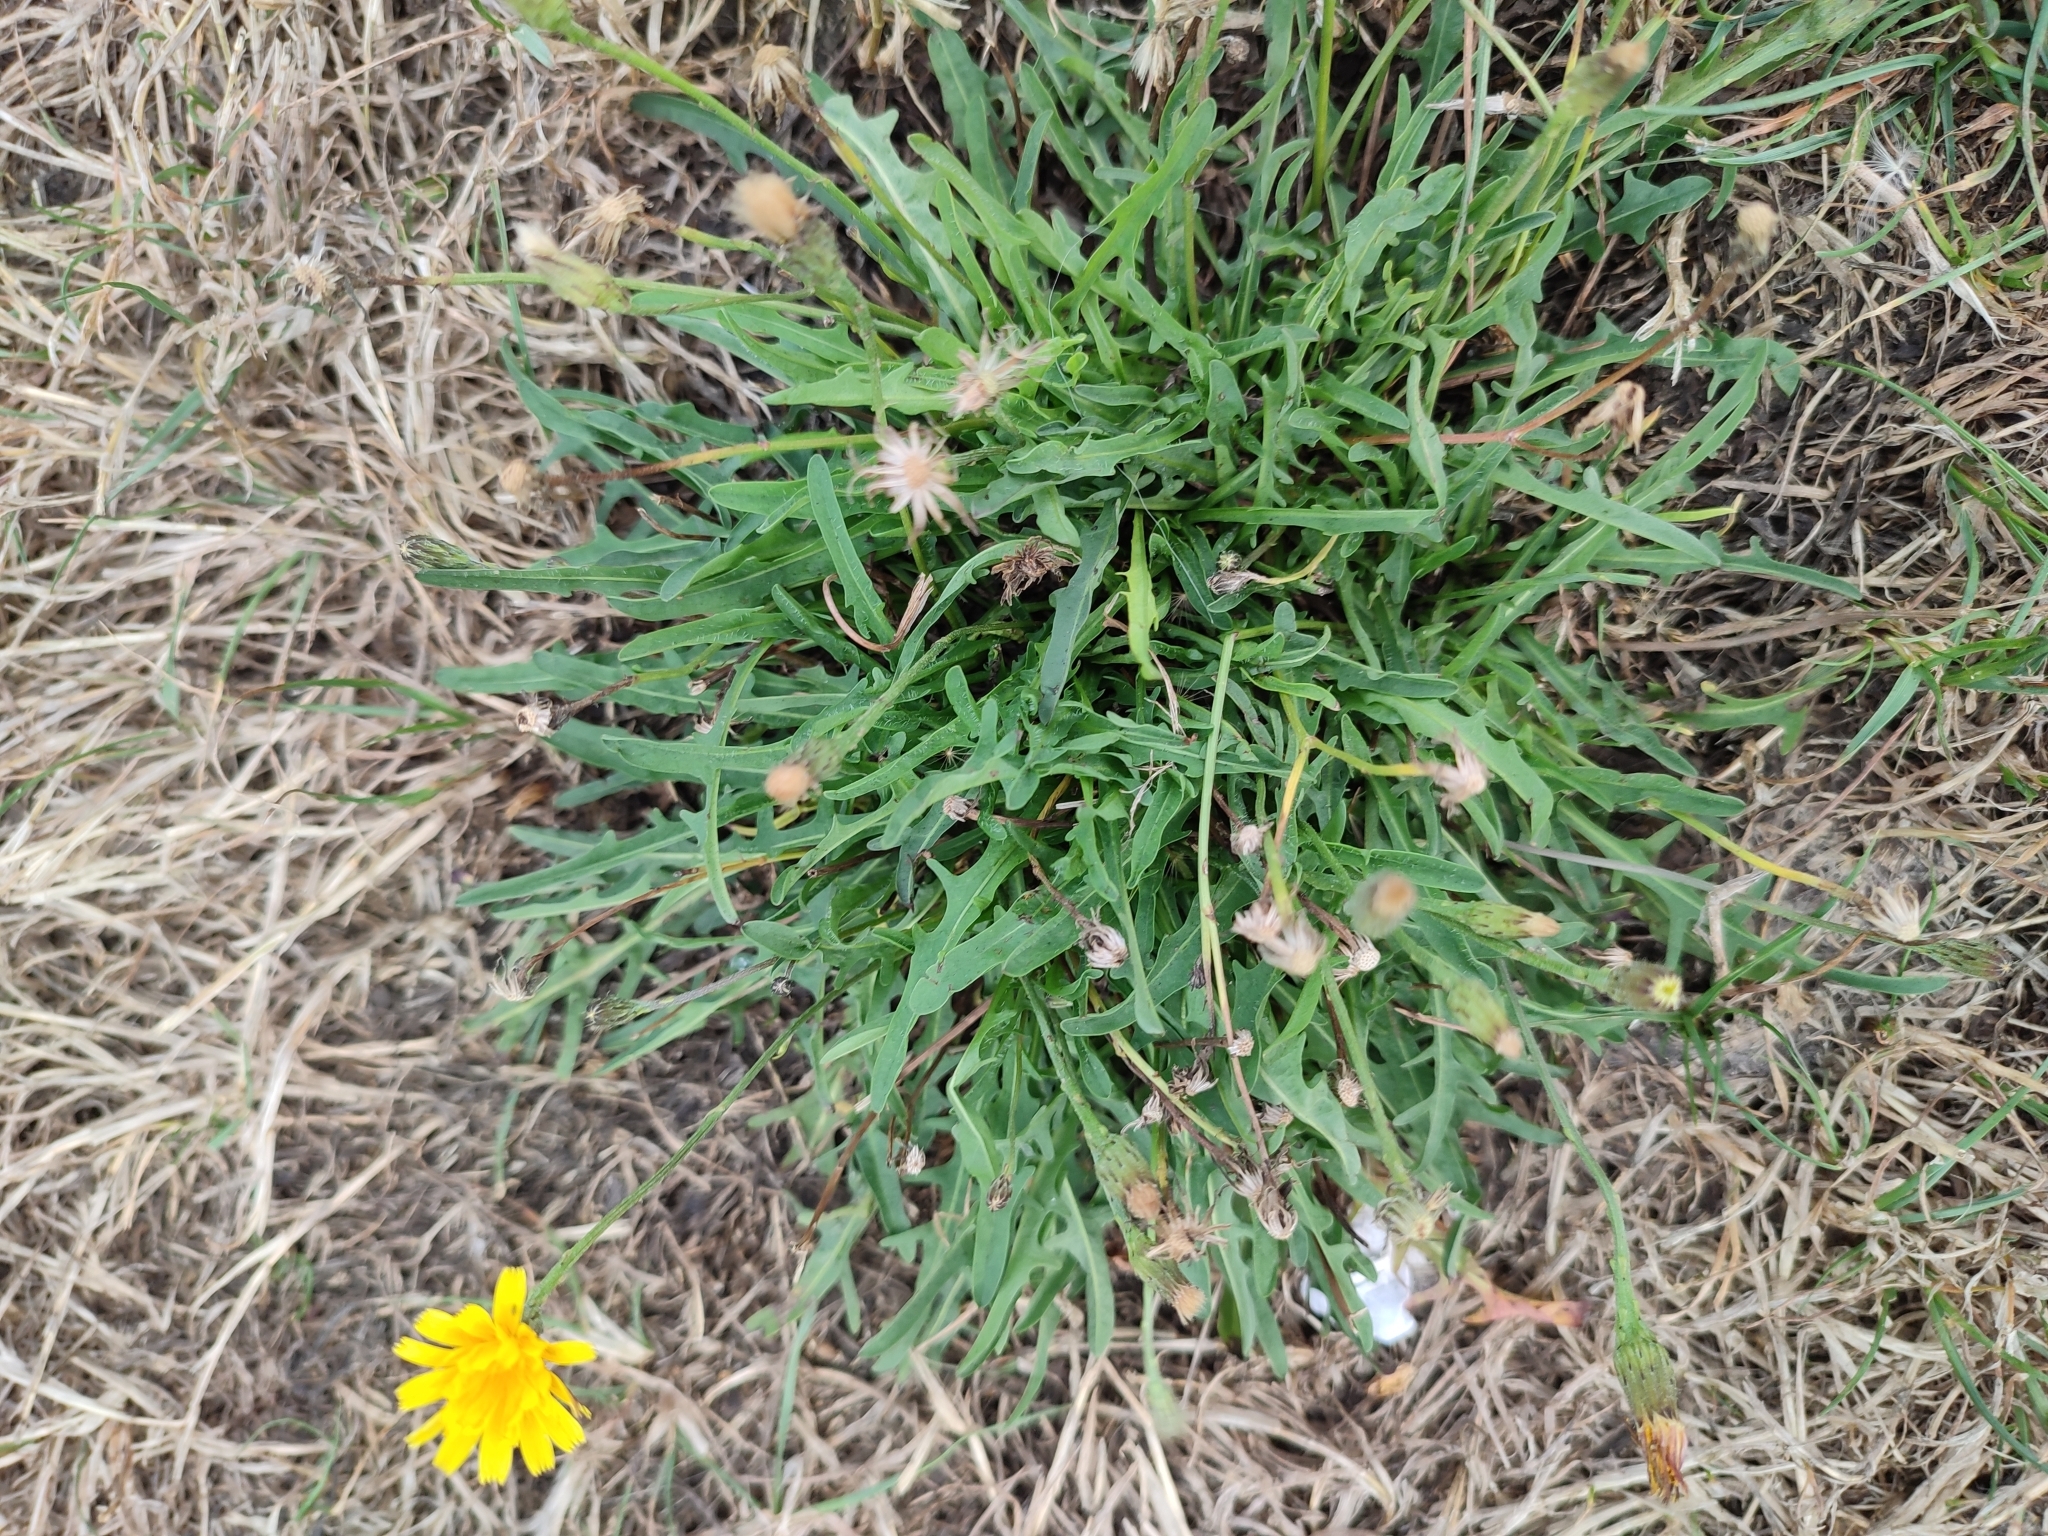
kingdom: Plantae
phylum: Tracheophyta
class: Magnoliopsida
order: Asterales
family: Asteraceae
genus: Scorzoneroides
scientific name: Scorzoneroides autumnalis
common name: Autumn hawkbit
